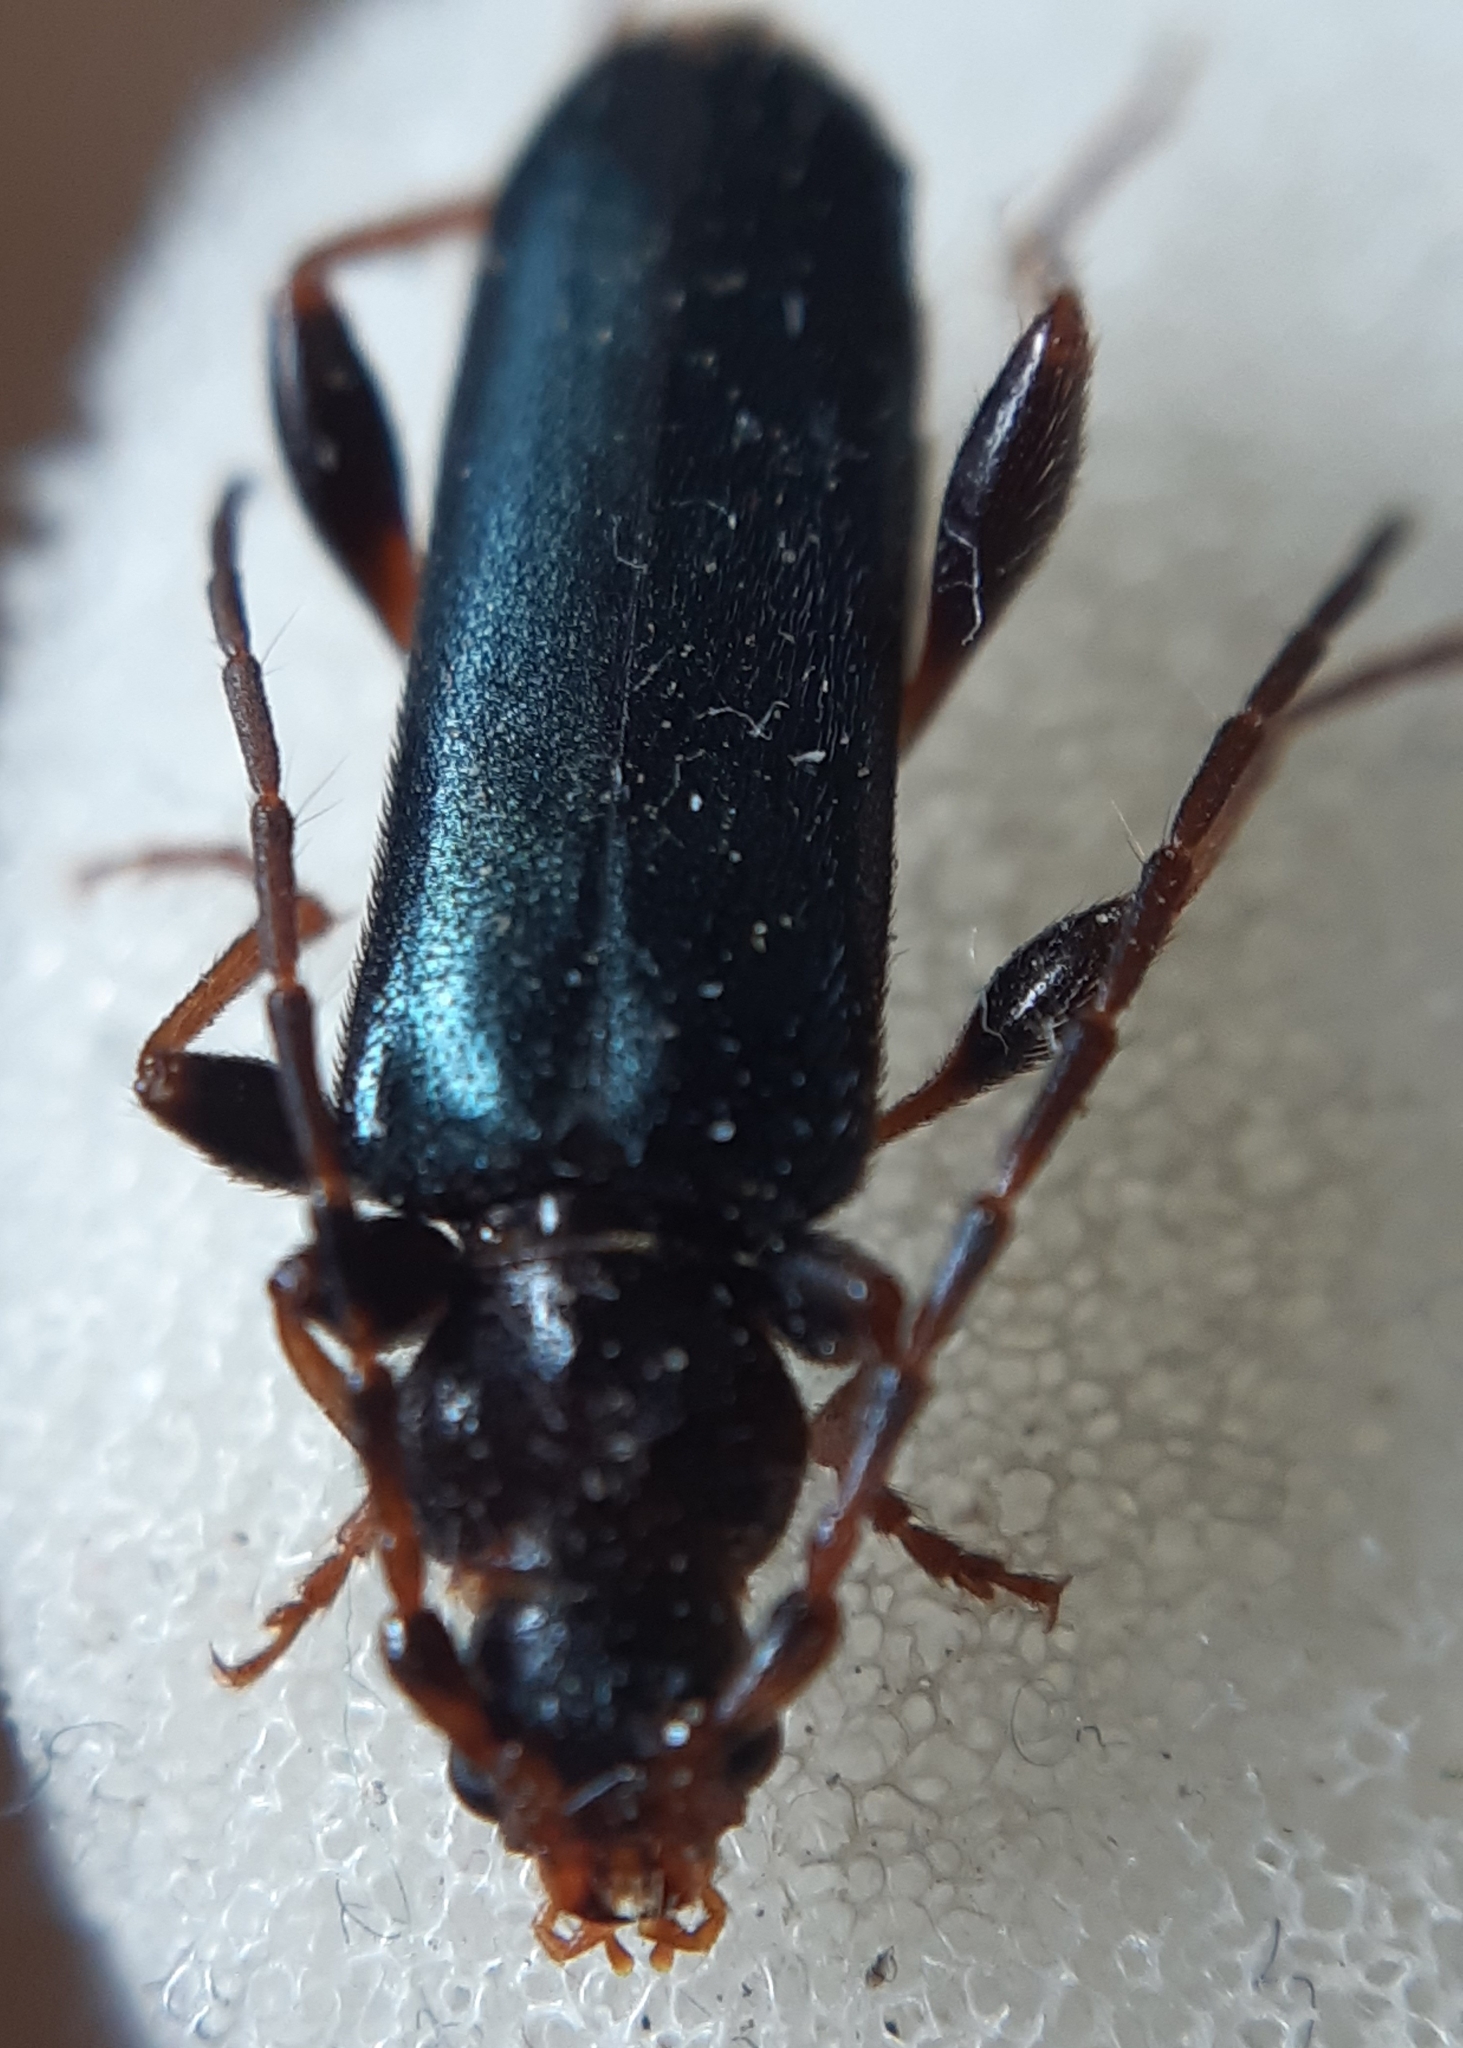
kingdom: Animalia
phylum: Arthropoda
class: Insecta
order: Coleoptera
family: Cerambycidae
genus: Phymatodes
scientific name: Phymatodes testaceus
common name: Long-horned beetle
